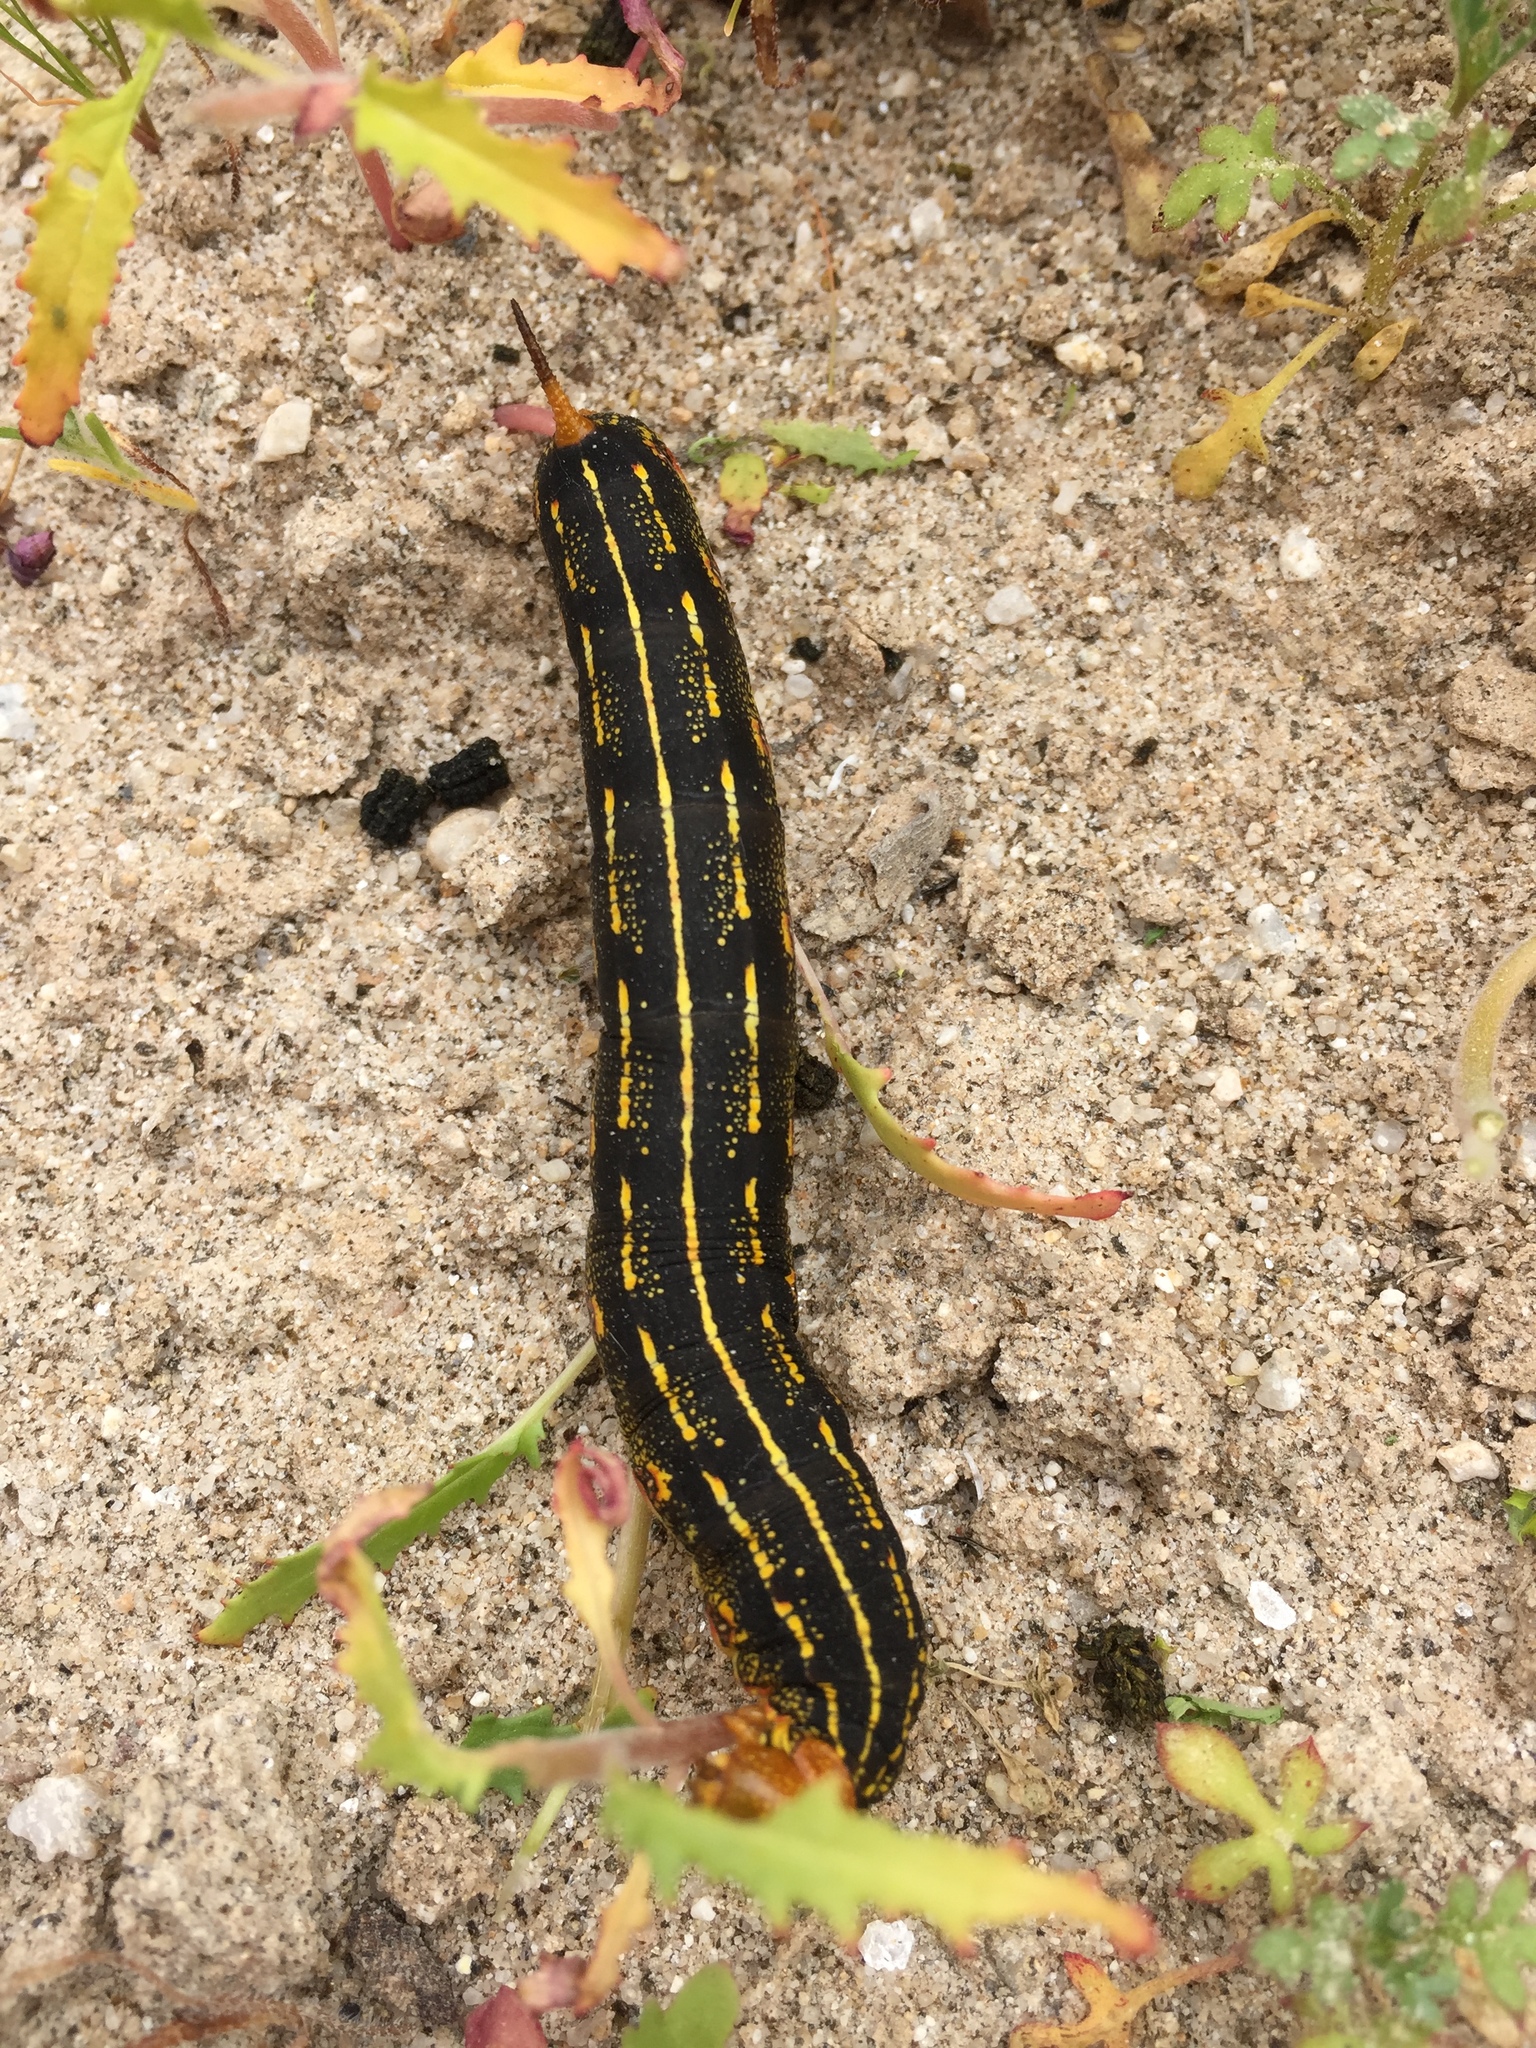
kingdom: Animalia
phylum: Arthropoda
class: Insecta
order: Lepidoptera
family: Sphingidae
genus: Hyles
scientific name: Hyles lineata
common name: White-lined sphinx
